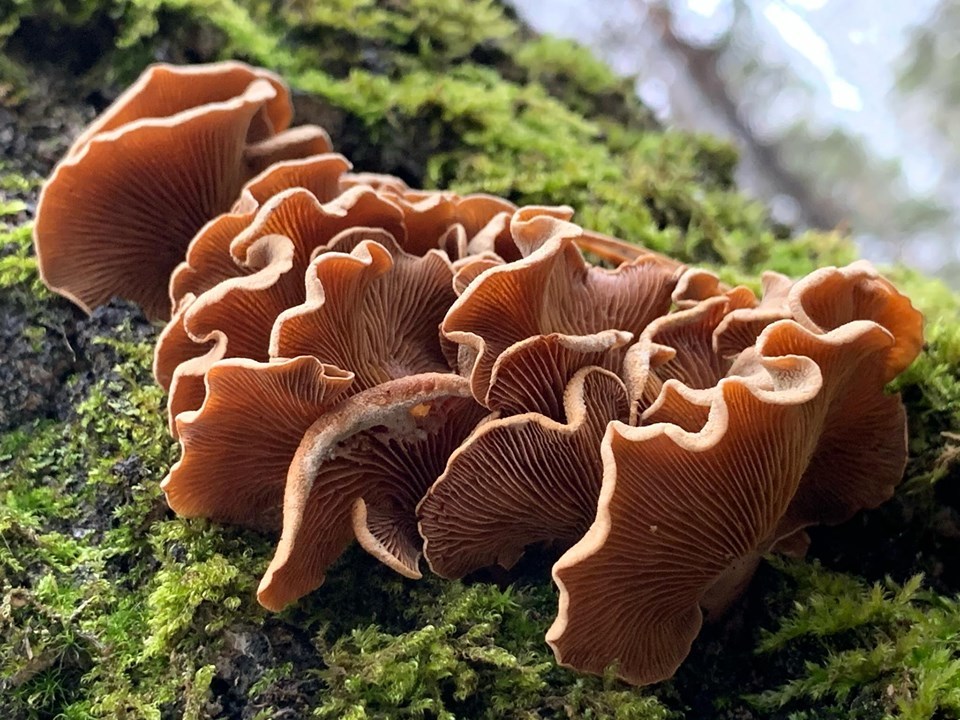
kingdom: Fungi
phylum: Basidiomycota
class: Agaricomycetes
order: Agaricales
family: Mycenaceae
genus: Panellus
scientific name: Panellus stipticus
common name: Bitter oysterling
